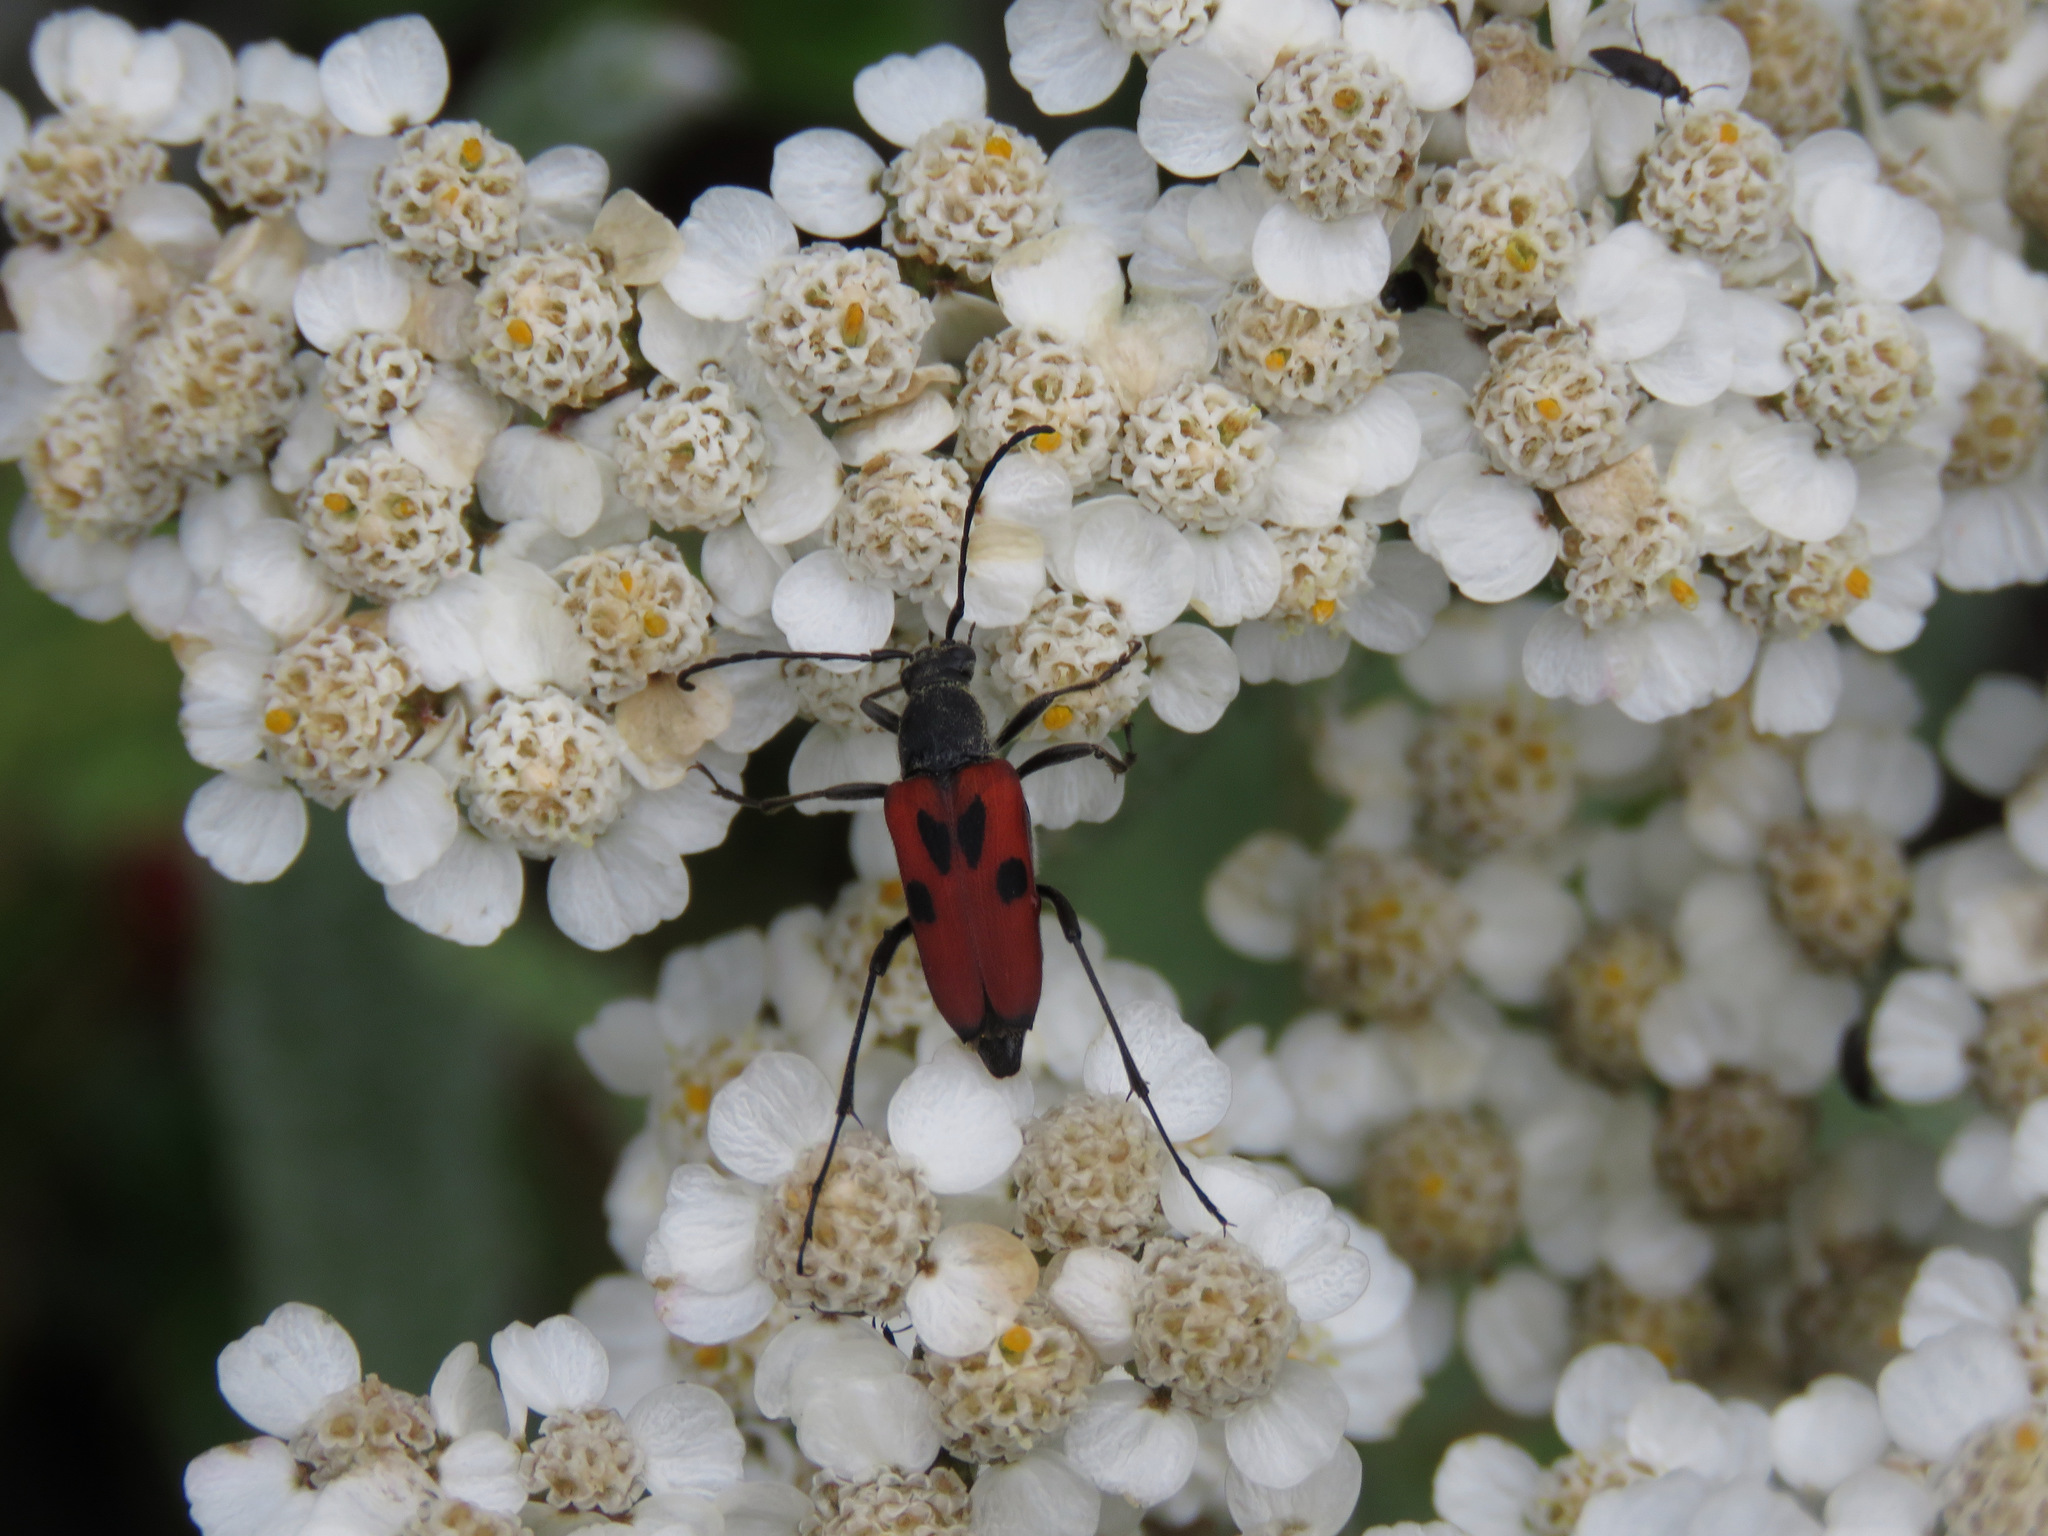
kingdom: Animalia
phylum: Arthropoda
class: Insecta
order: Coleoptera
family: Cerambycidae
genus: Anastrangalia
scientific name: Anastrangalia laetifica
